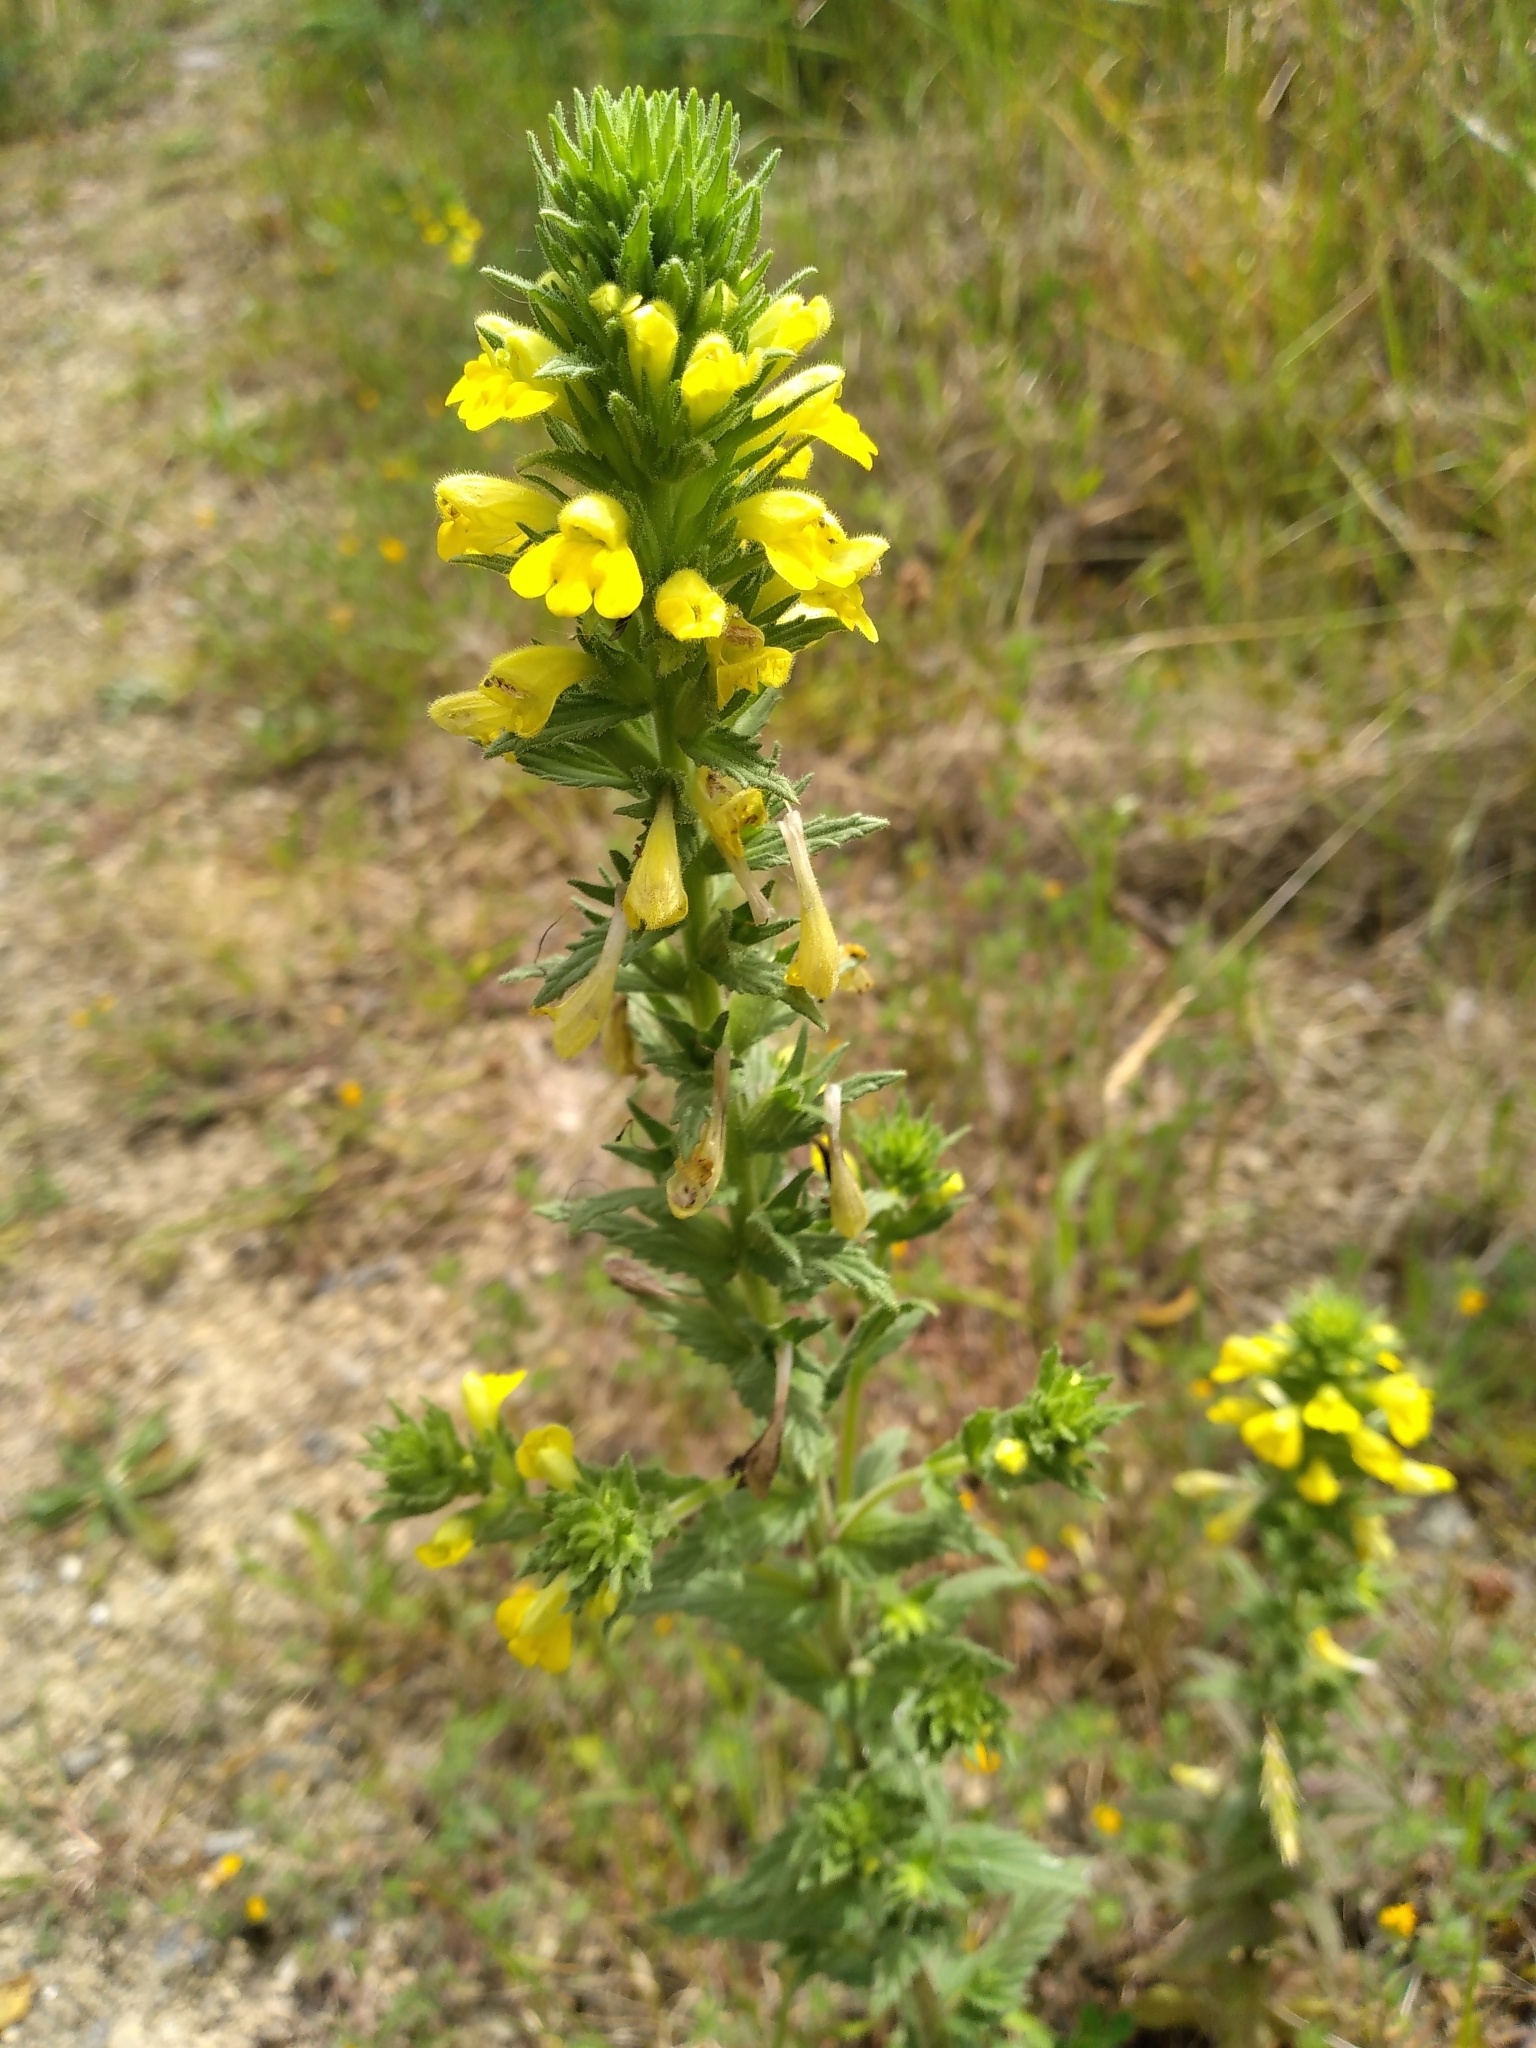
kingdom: Plantae
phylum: Tracheophyta
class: Magnoliopsida
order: Lamiales
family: Orobanchaceae
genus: Bellardia
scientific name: Bellardia viscosa
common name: Sticky parentucellia
